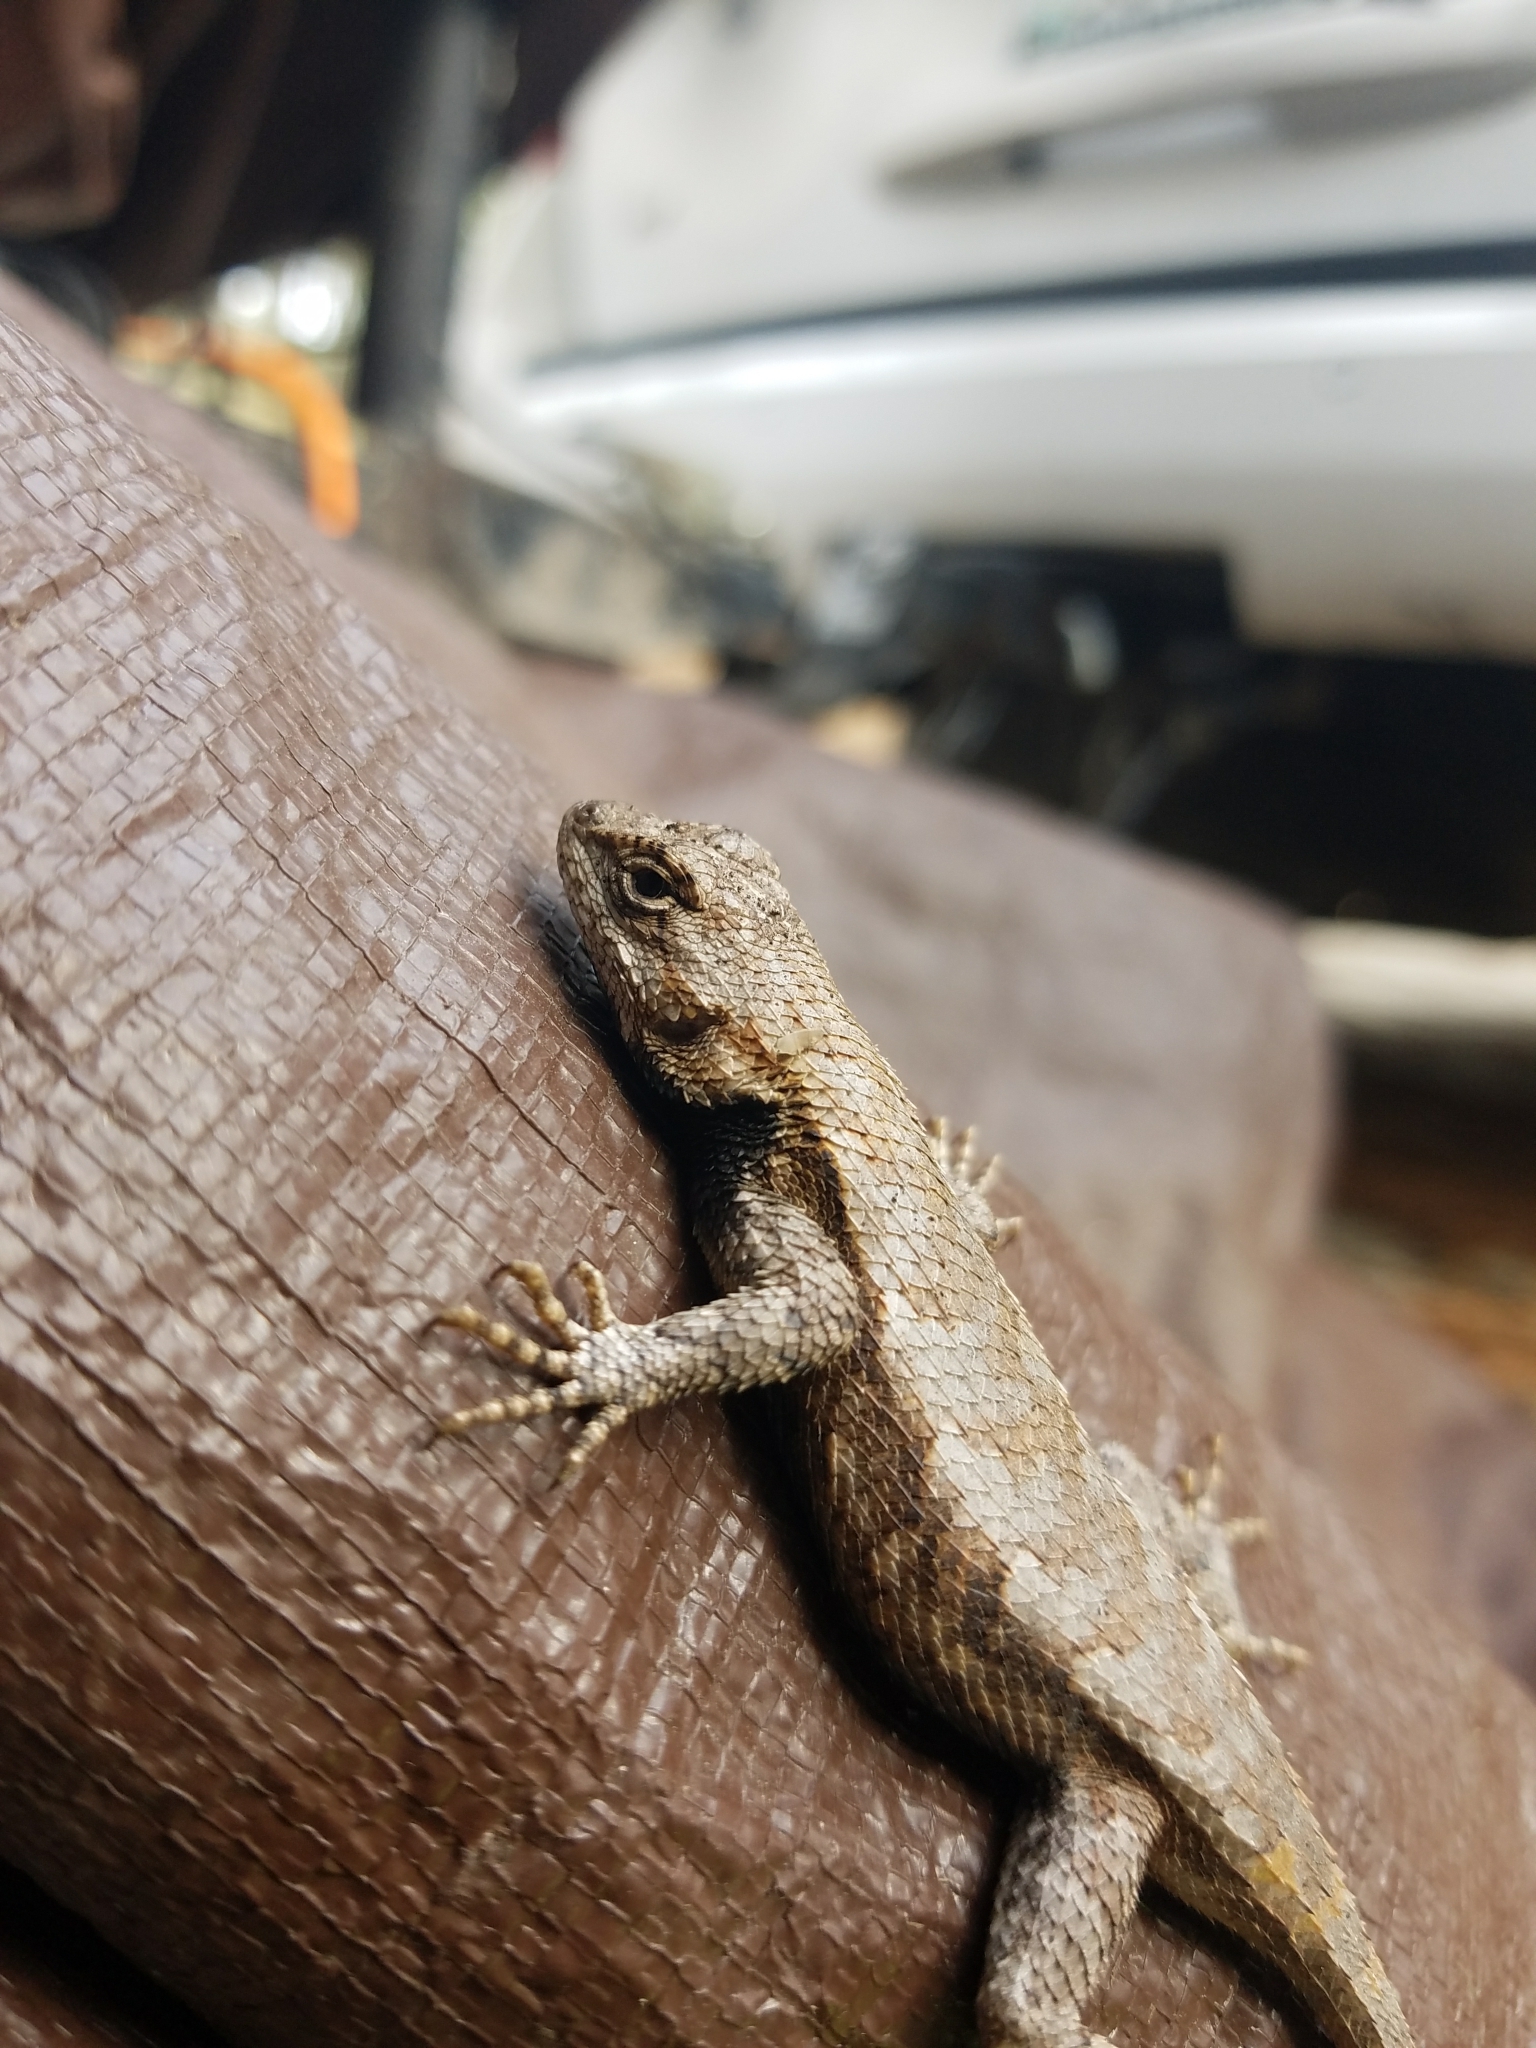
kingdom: Animalia
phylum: Chordata
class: Squamata
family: Phrynosomatidae
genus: Sceloporus
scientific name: Sceloporus undulatus
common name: Eastern fence lizard
